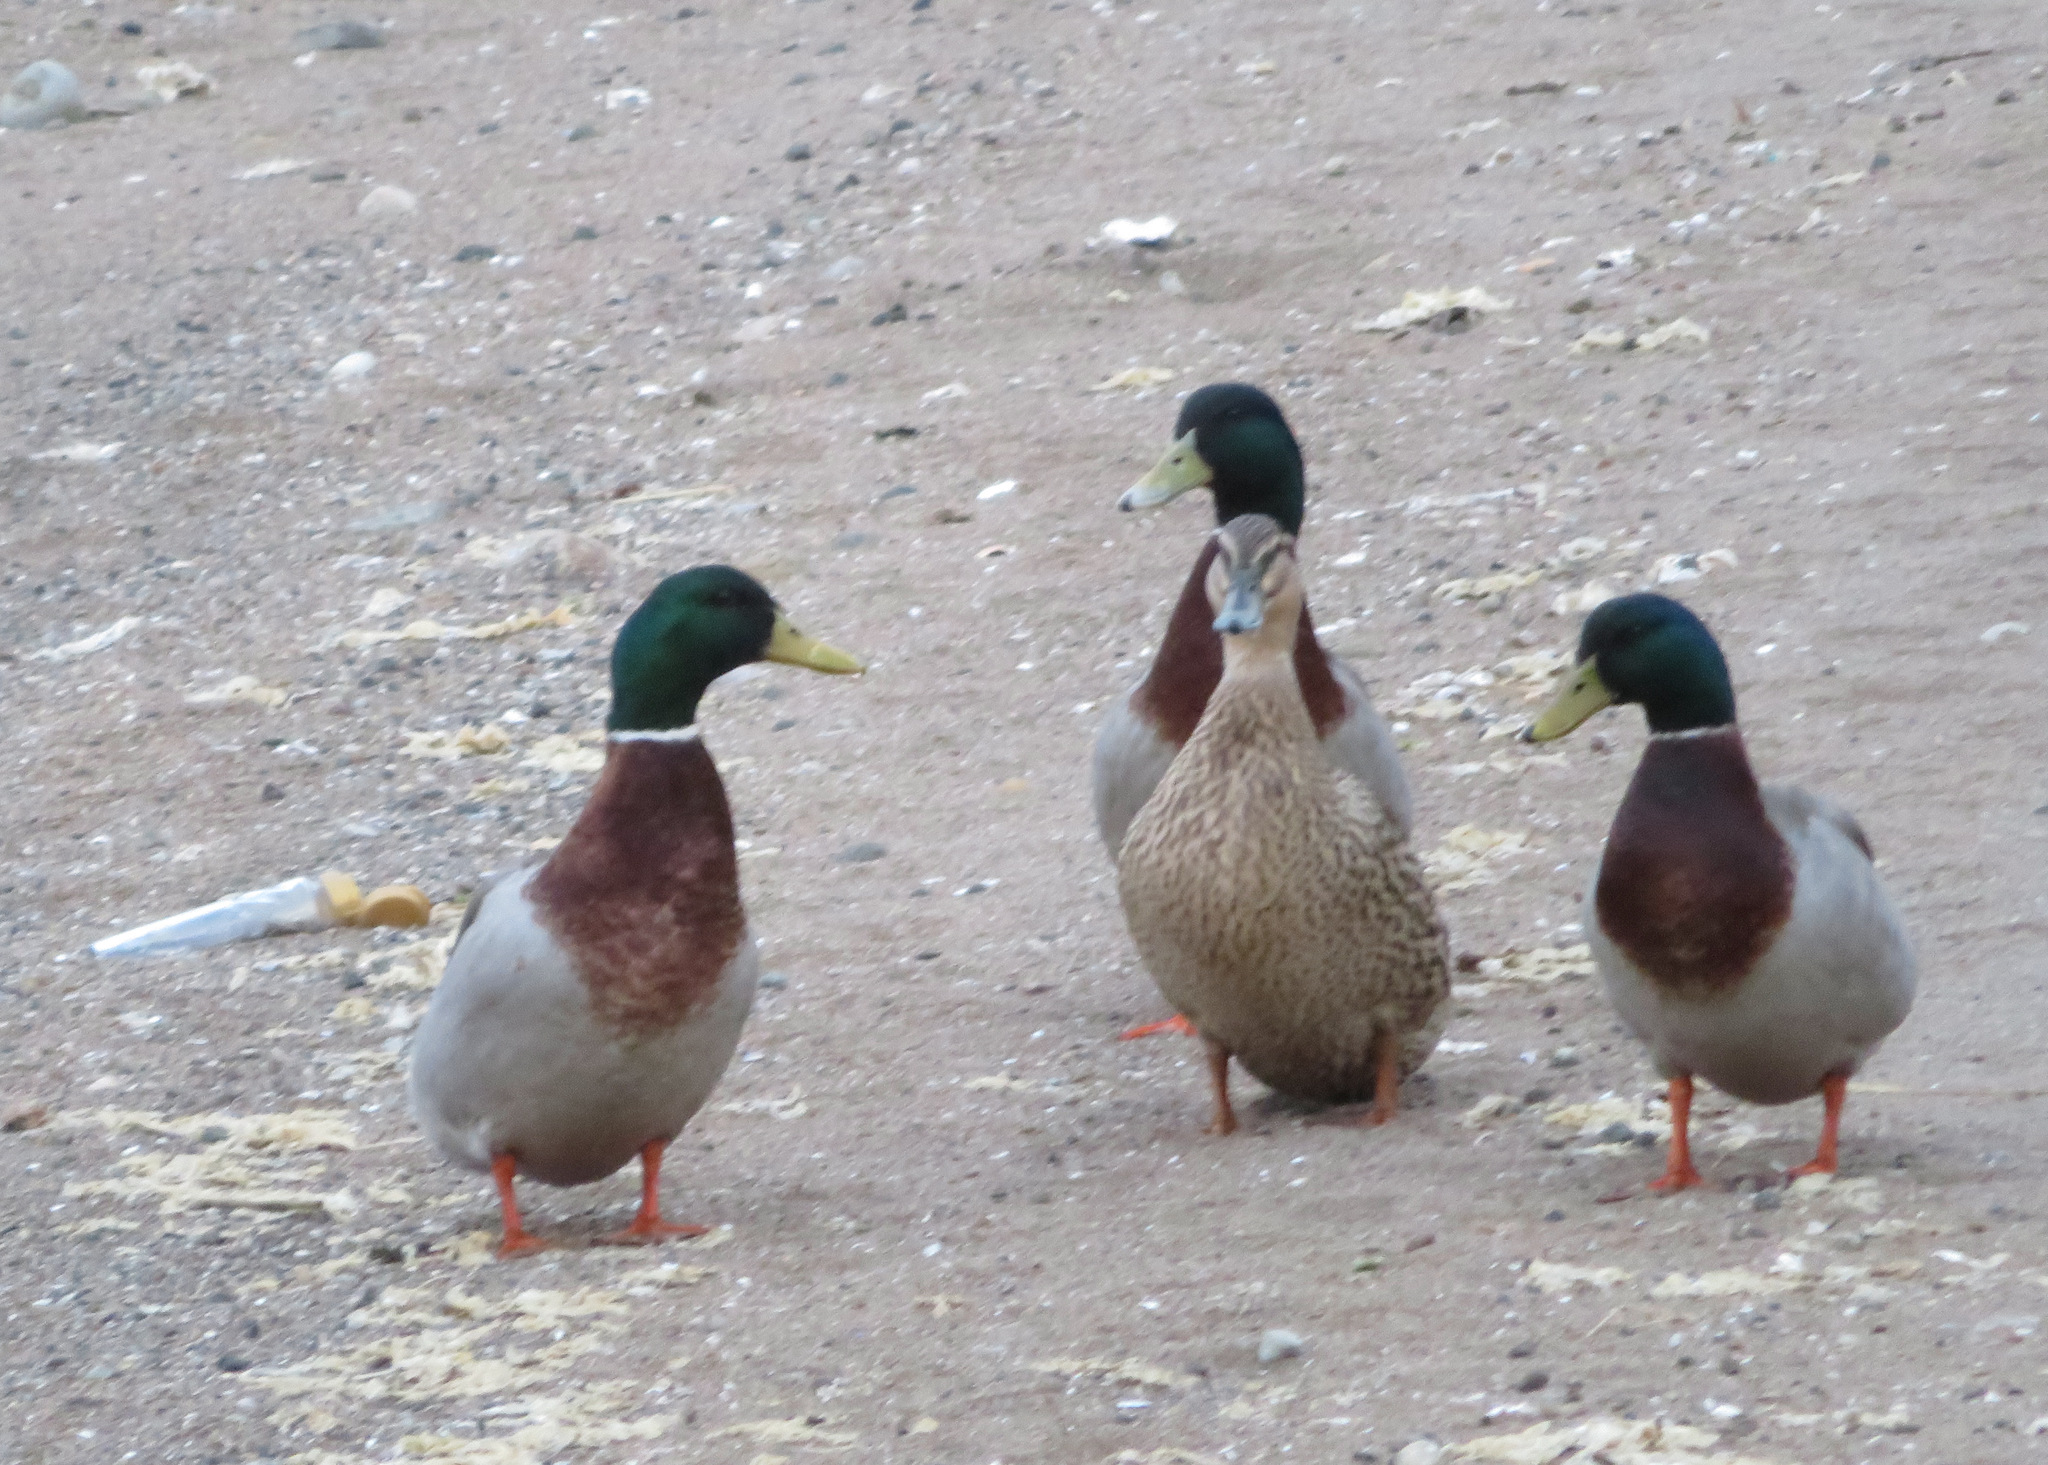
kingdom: Animalia
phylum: Chordata
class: Aves
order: Anseriformes
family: Anatidae
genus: Anas
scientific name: Anas platyrhynchos
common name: Mallard
